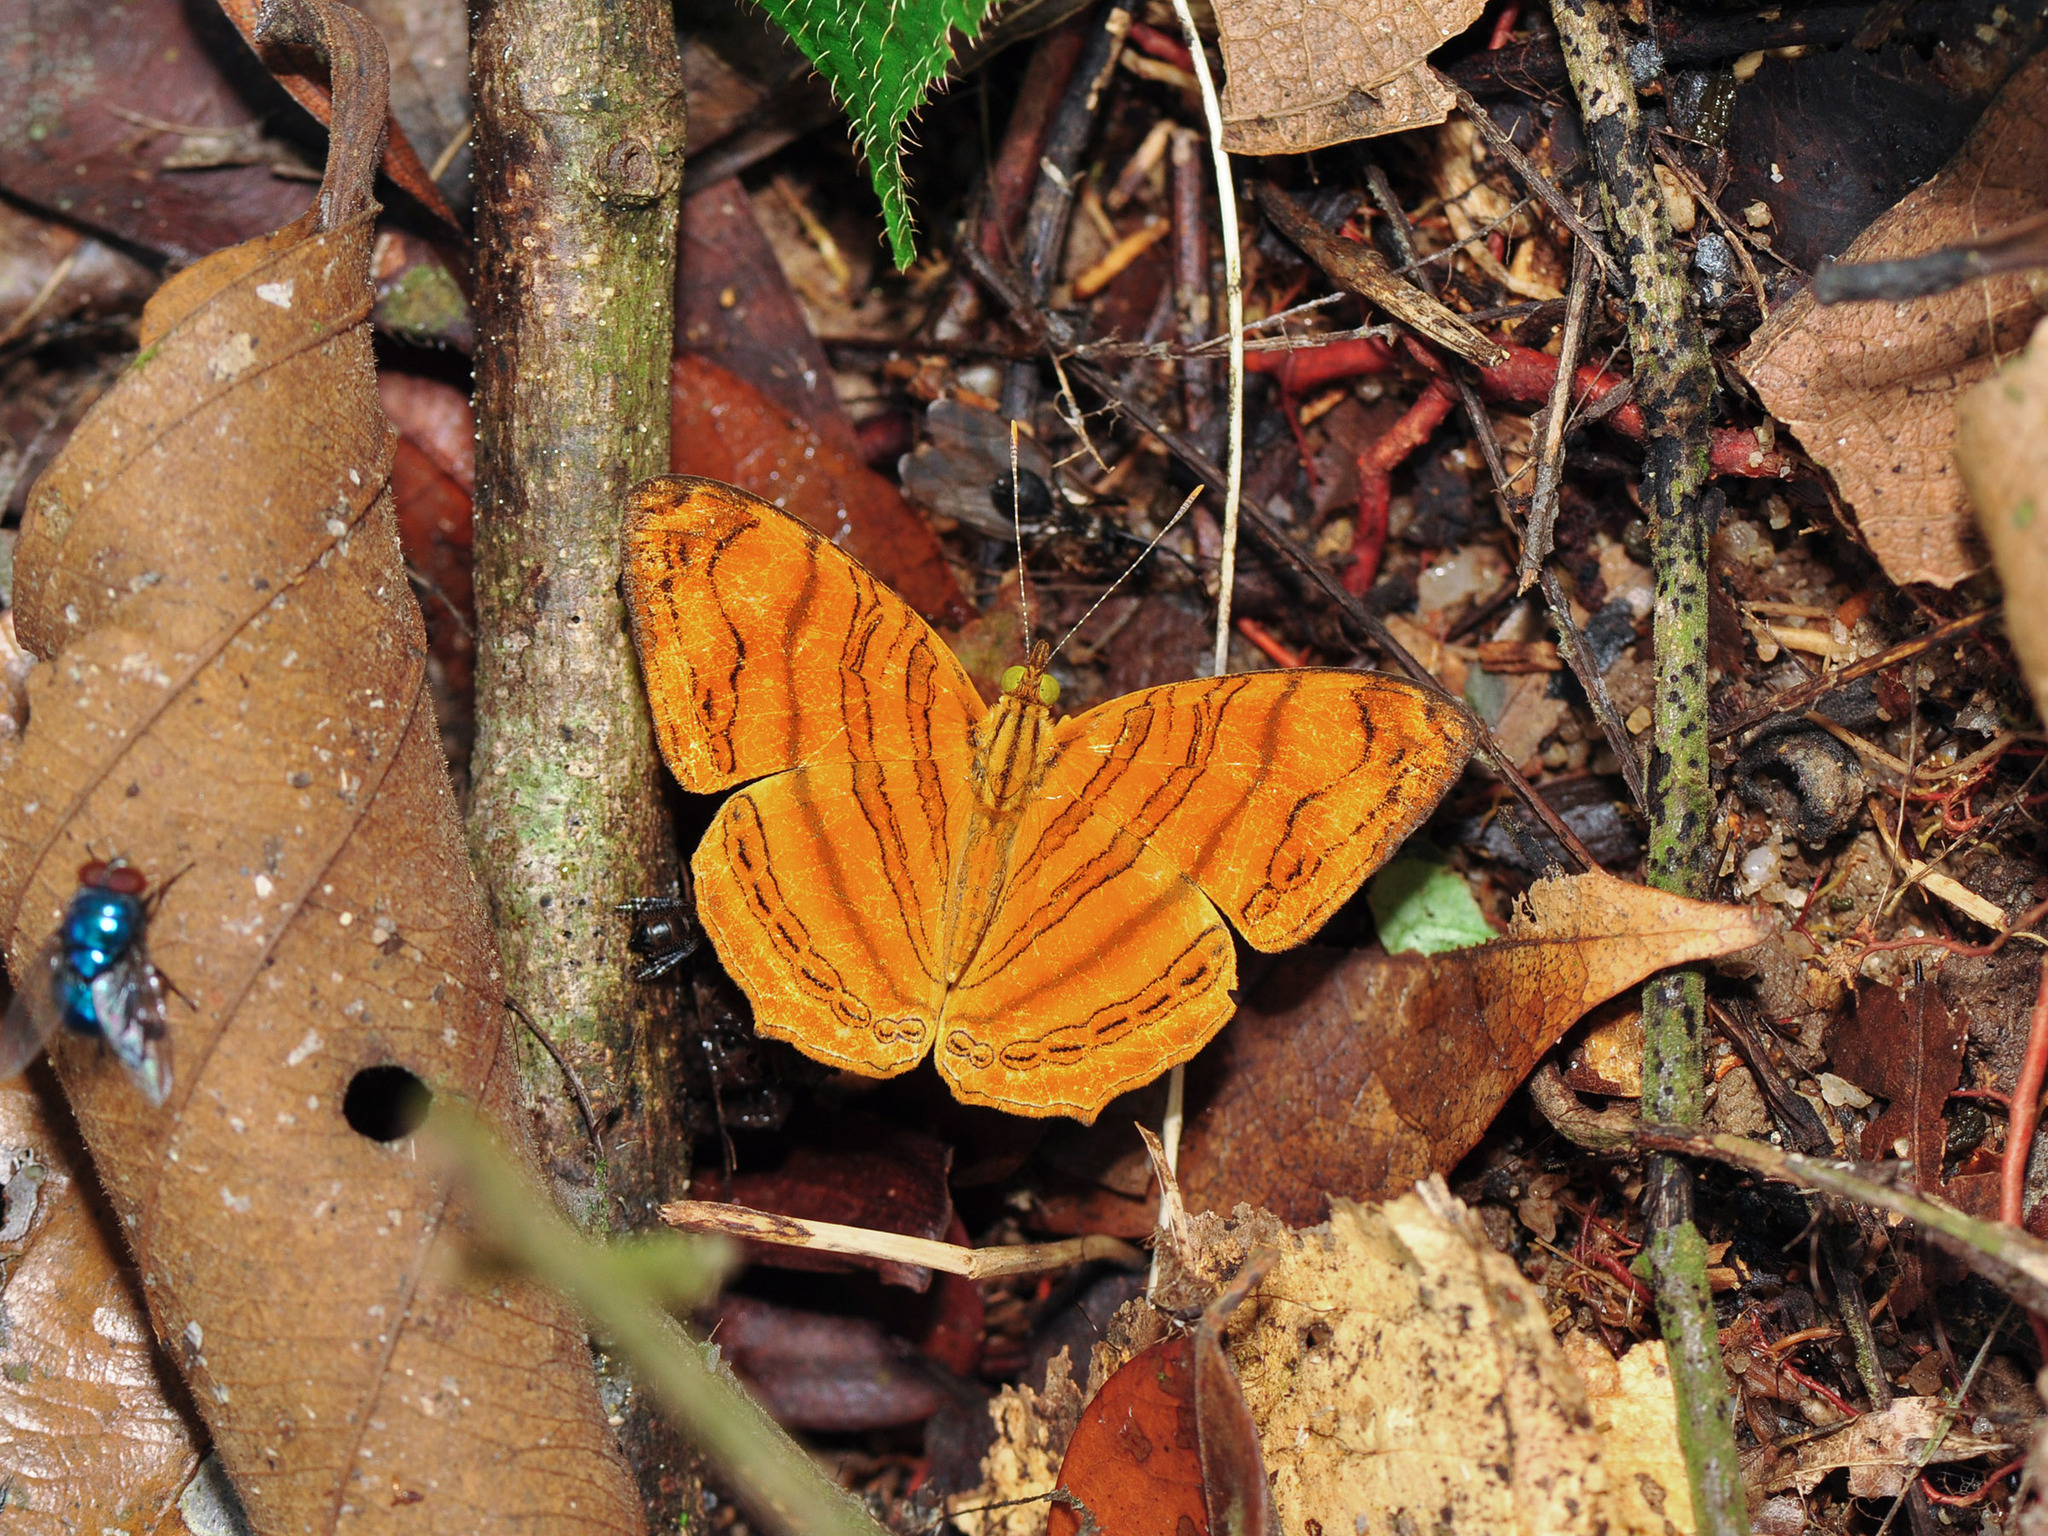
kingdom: Animalia
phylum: Arthropoda
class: Insecta
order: Lepidoptera
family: Nymphalidae
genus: Chersonesia
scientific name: Chersonesia rahria
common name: Wavy maplet
